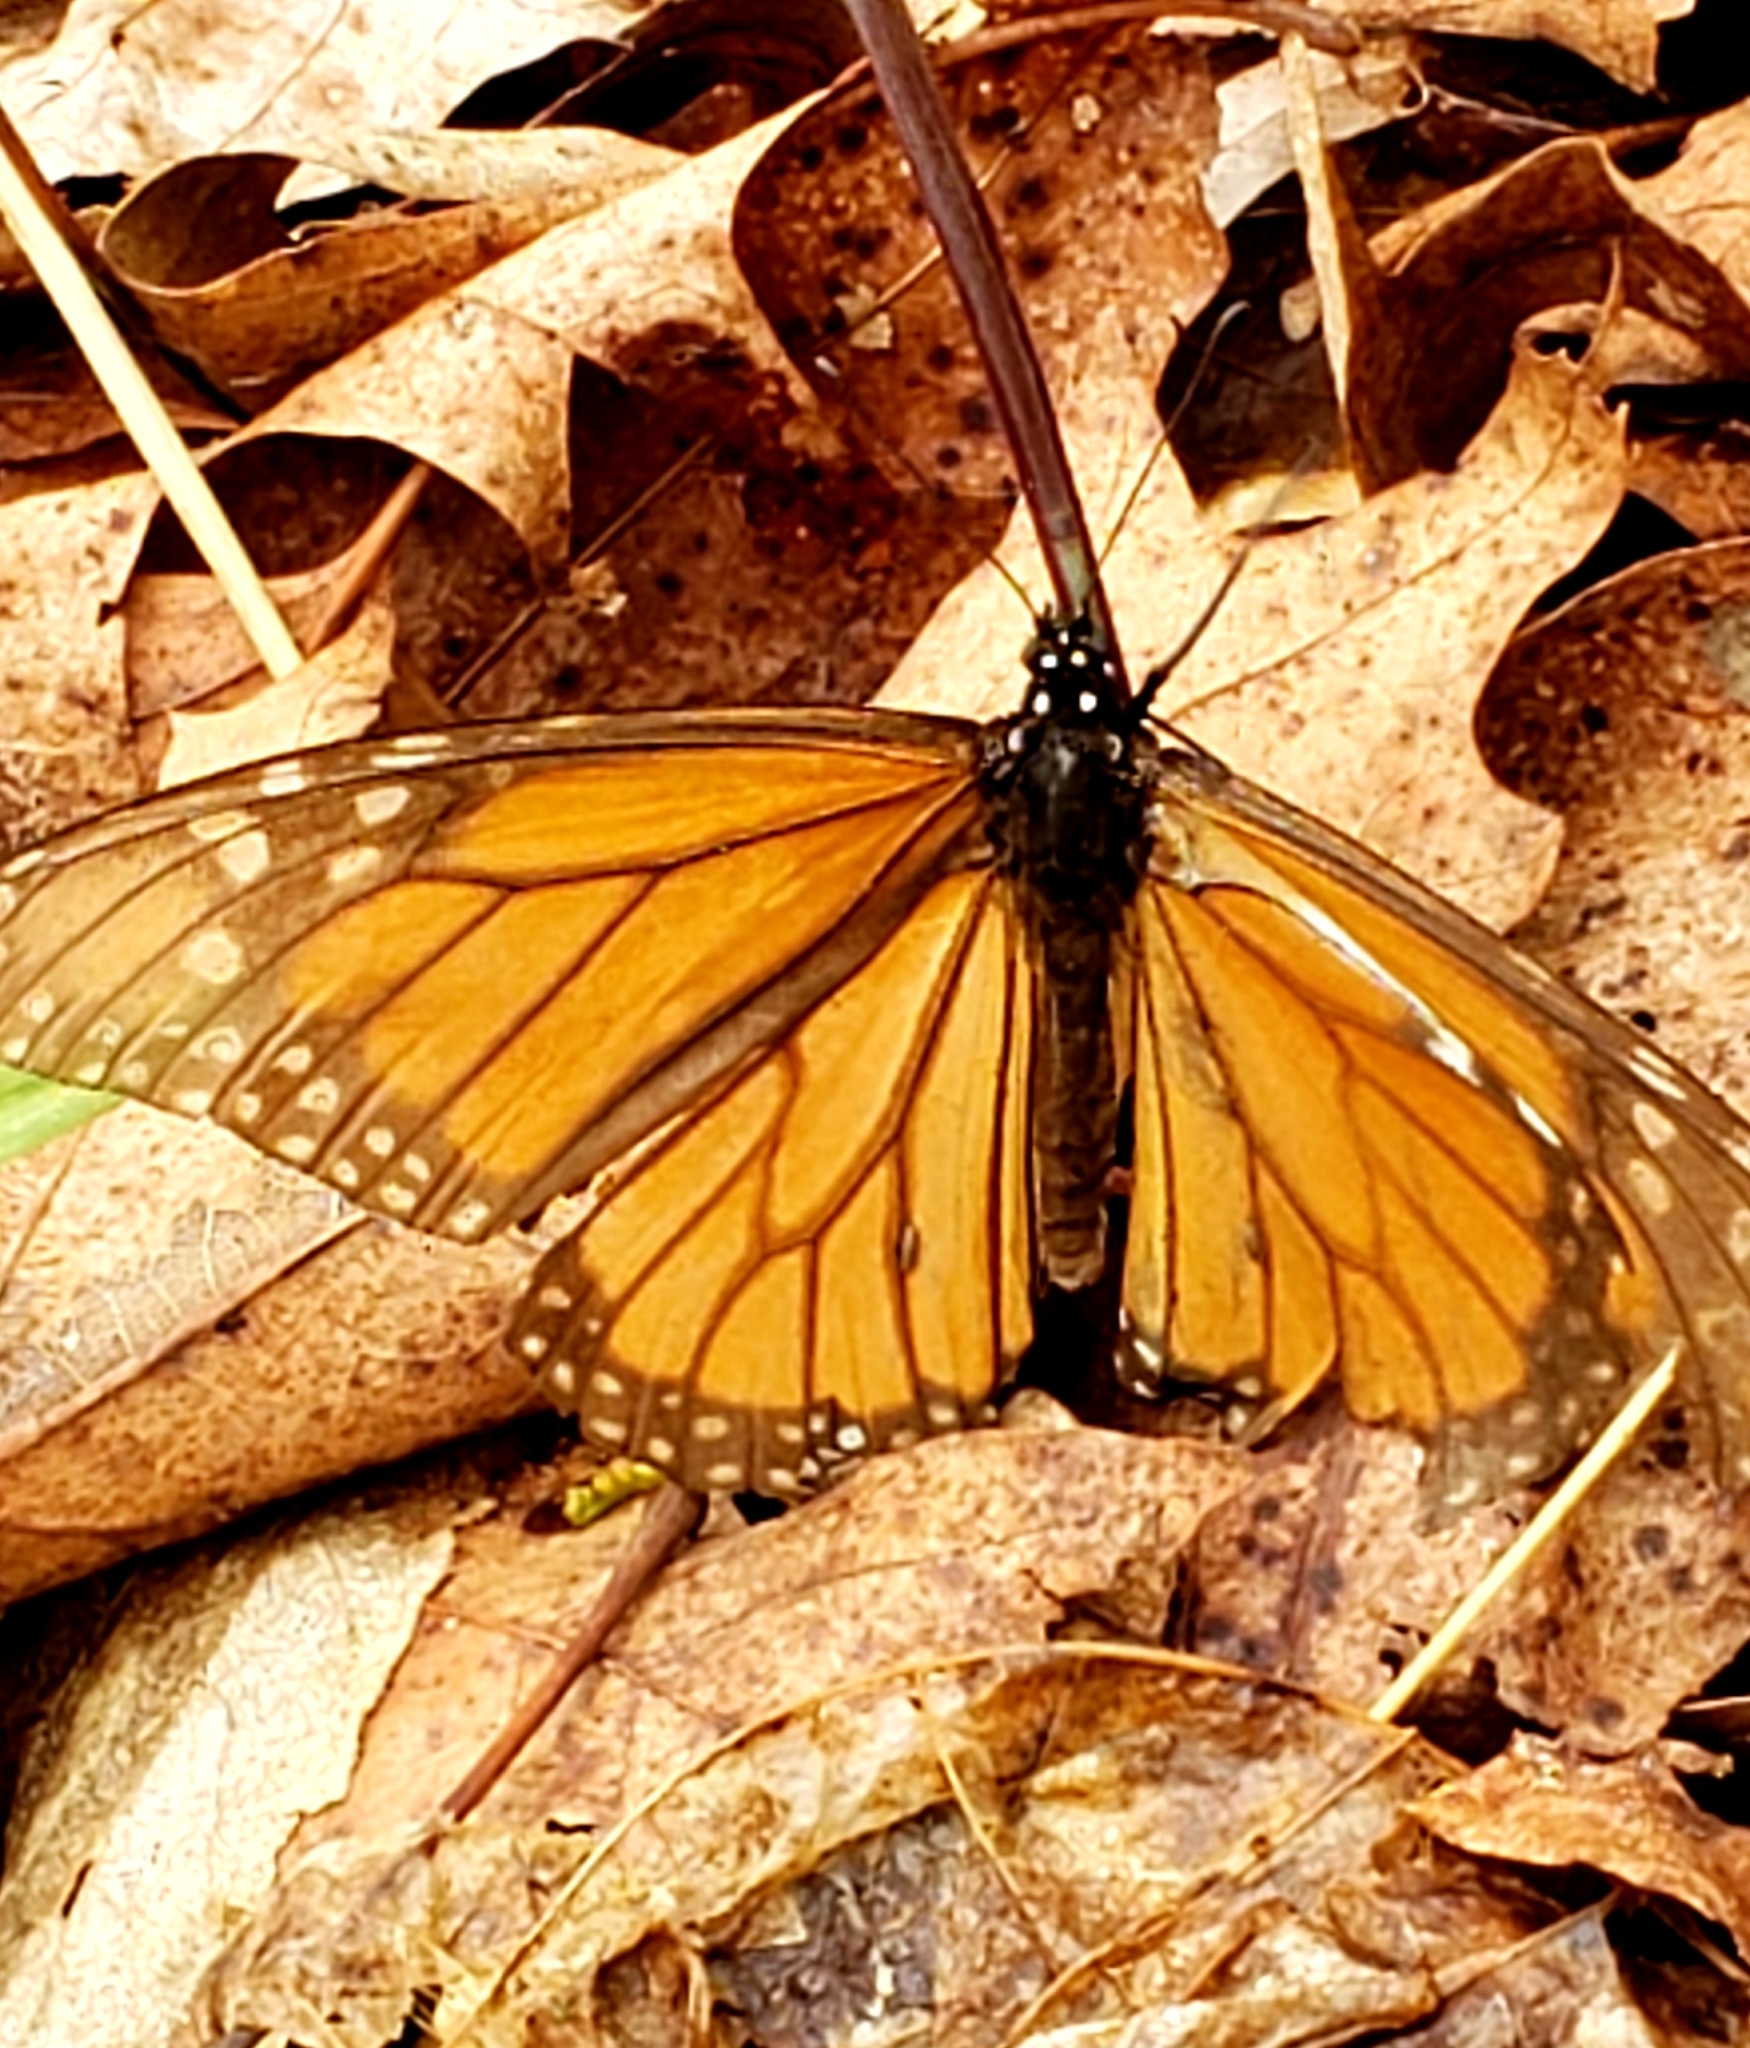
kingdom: Animalia
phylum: Arthropoda
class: Insecta
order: Lepidoptera
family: Nymphalidae
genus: Danaus
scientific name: Danaus plexippus
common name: Monarch
